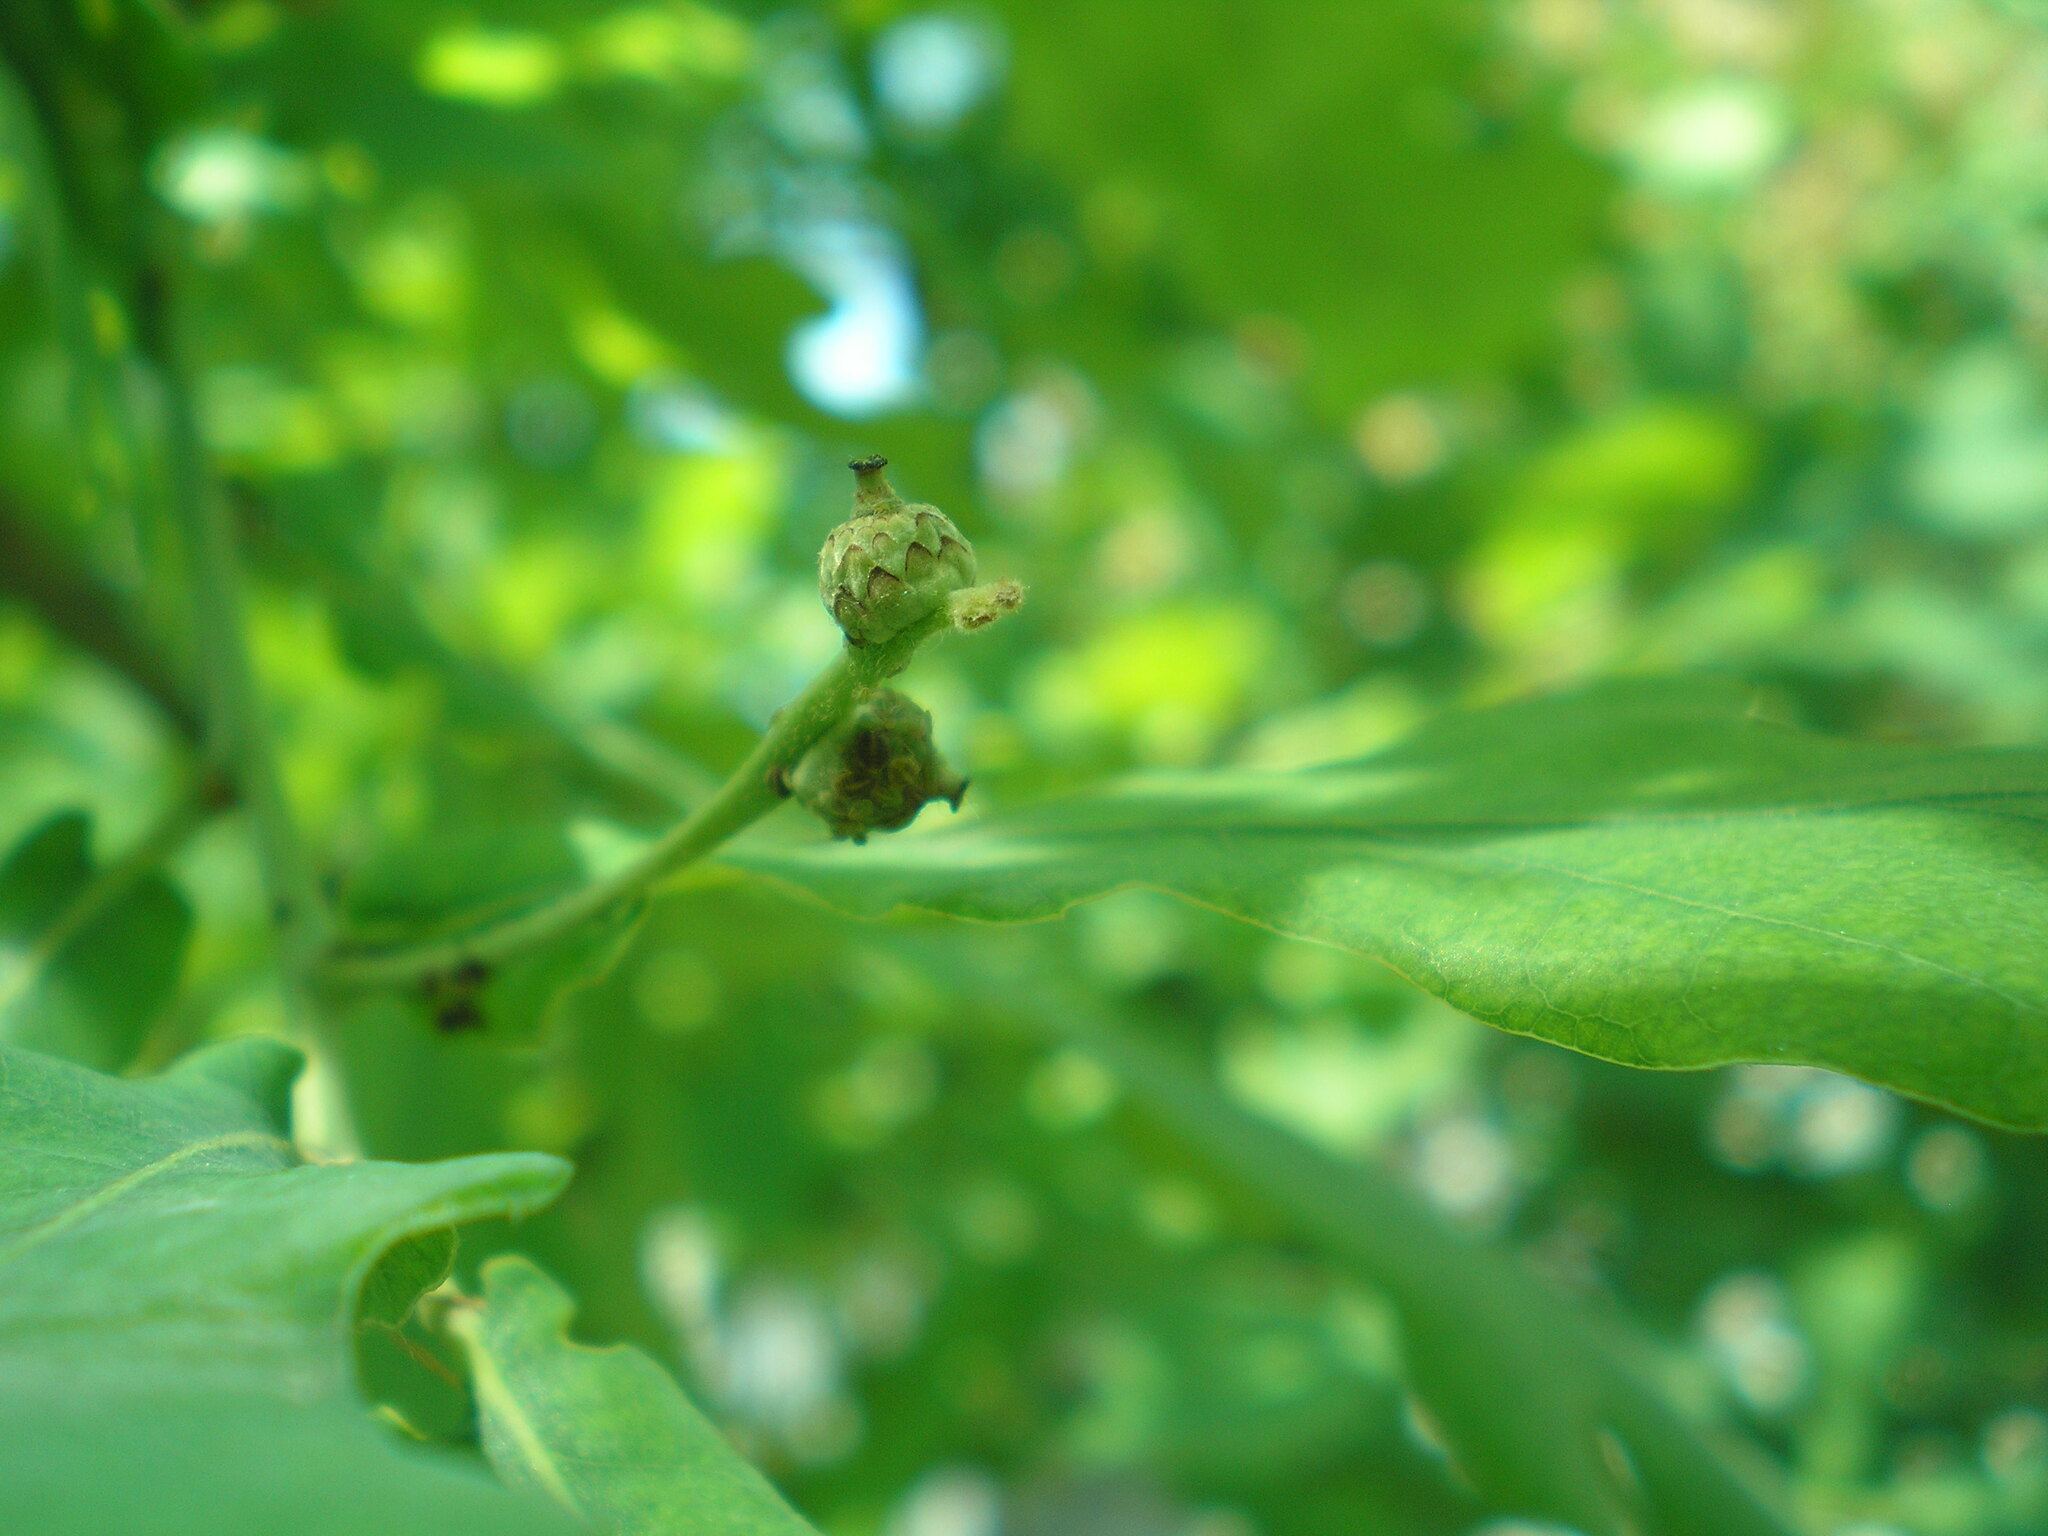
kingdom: Plantae
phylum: Tracheophyta
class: Magnoliopsida
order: Fagales
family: Fagaceae
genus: Quercus
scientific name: Quercus robur
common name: Pedunculate oak
